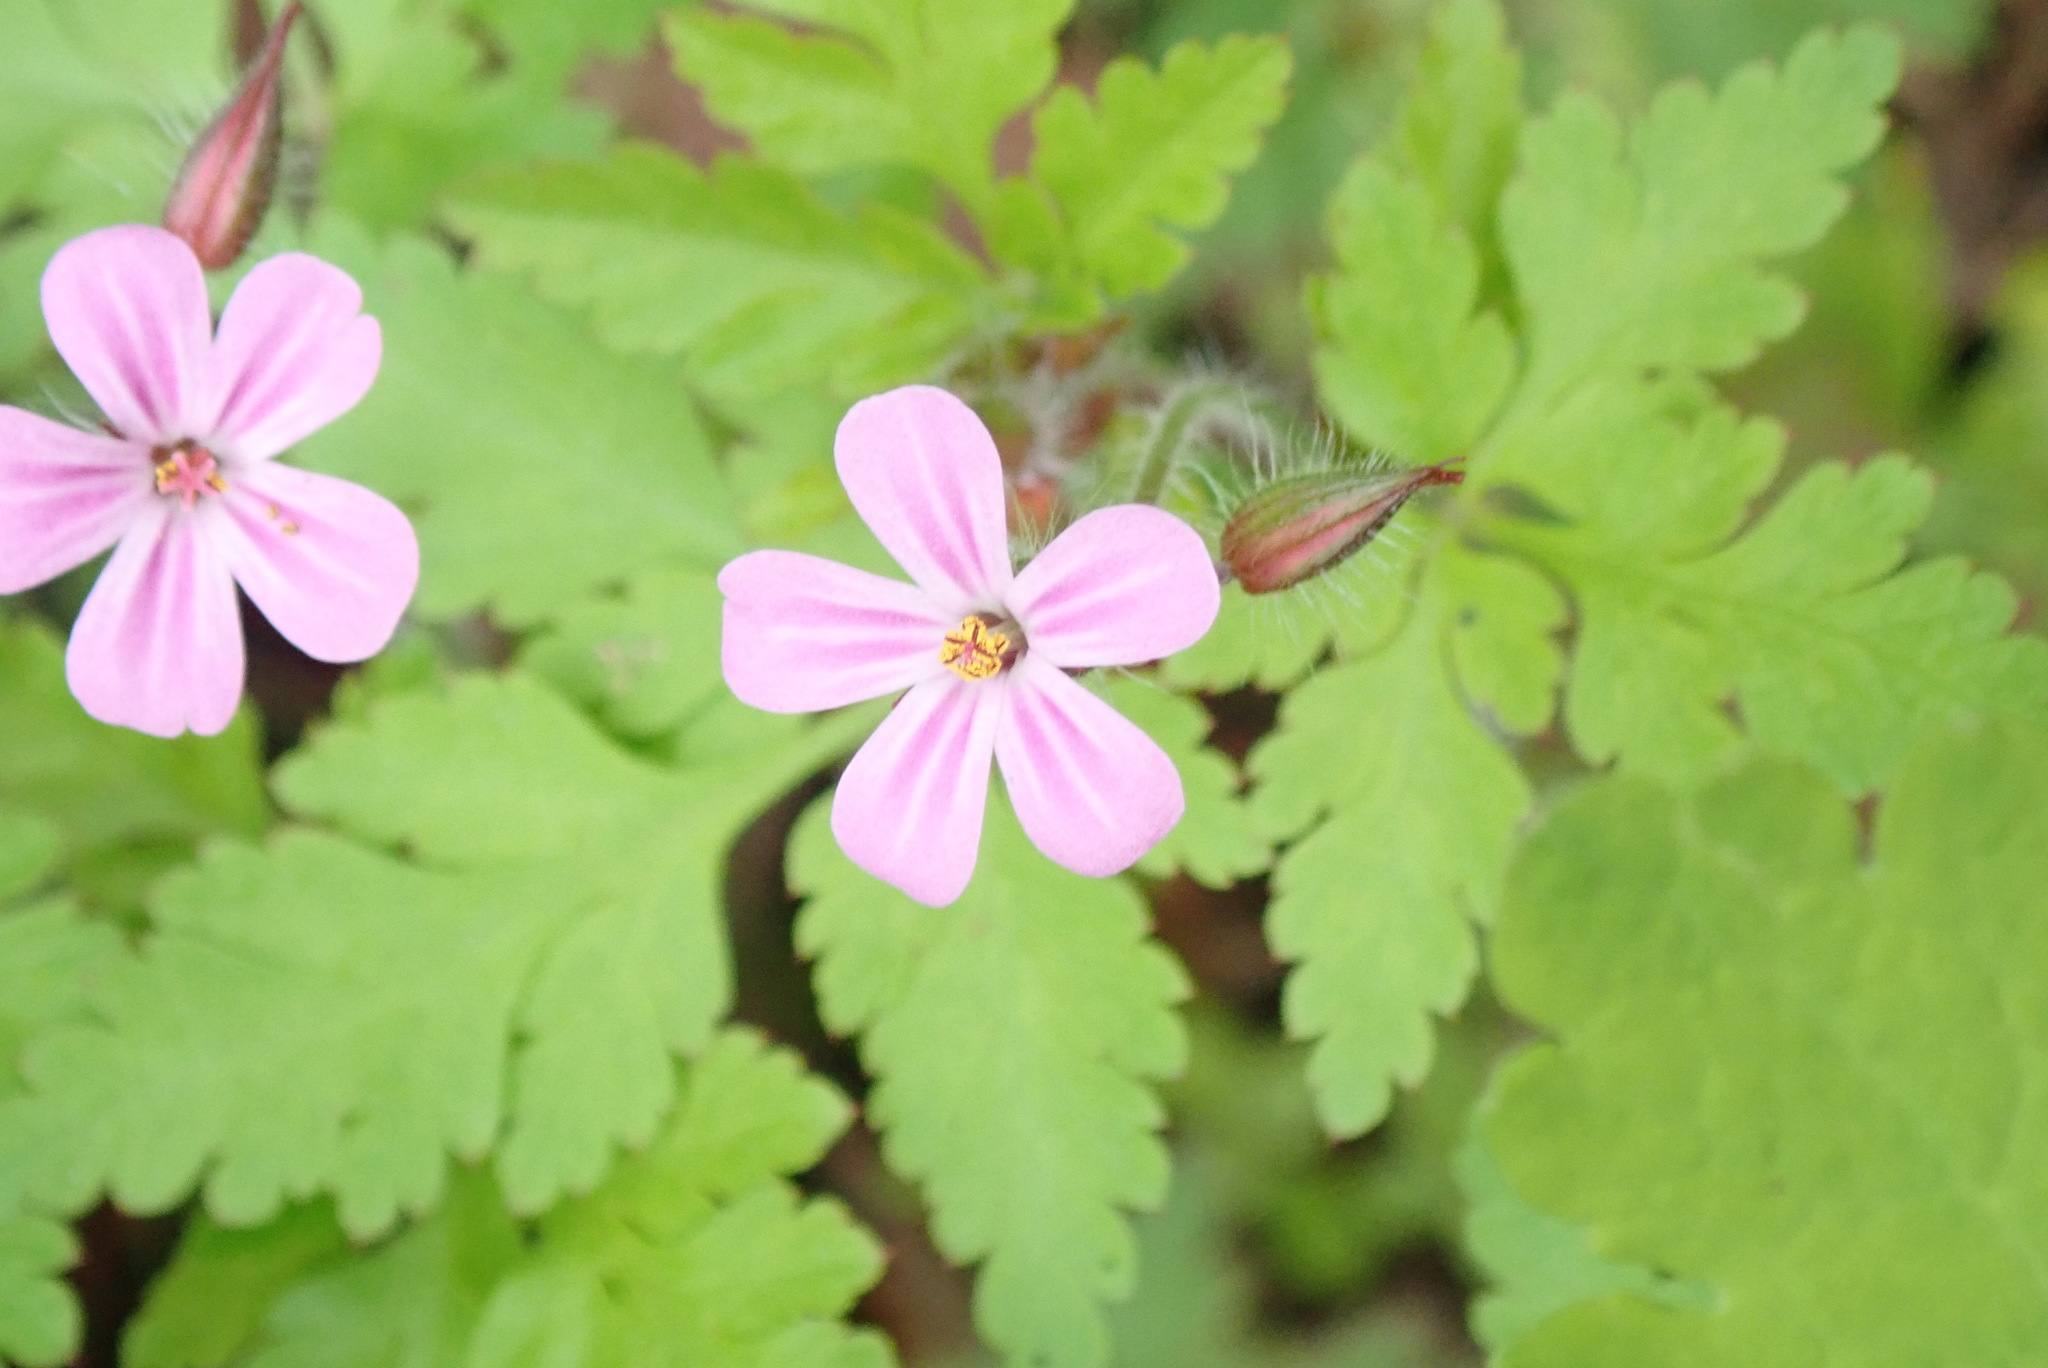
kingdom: Plantae
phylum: Tracheophyta
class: Magnoliopsida
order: Geraniales
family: Geraniaceae
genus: Geranium
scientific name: Geranium robertianum
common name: Herb-robert
